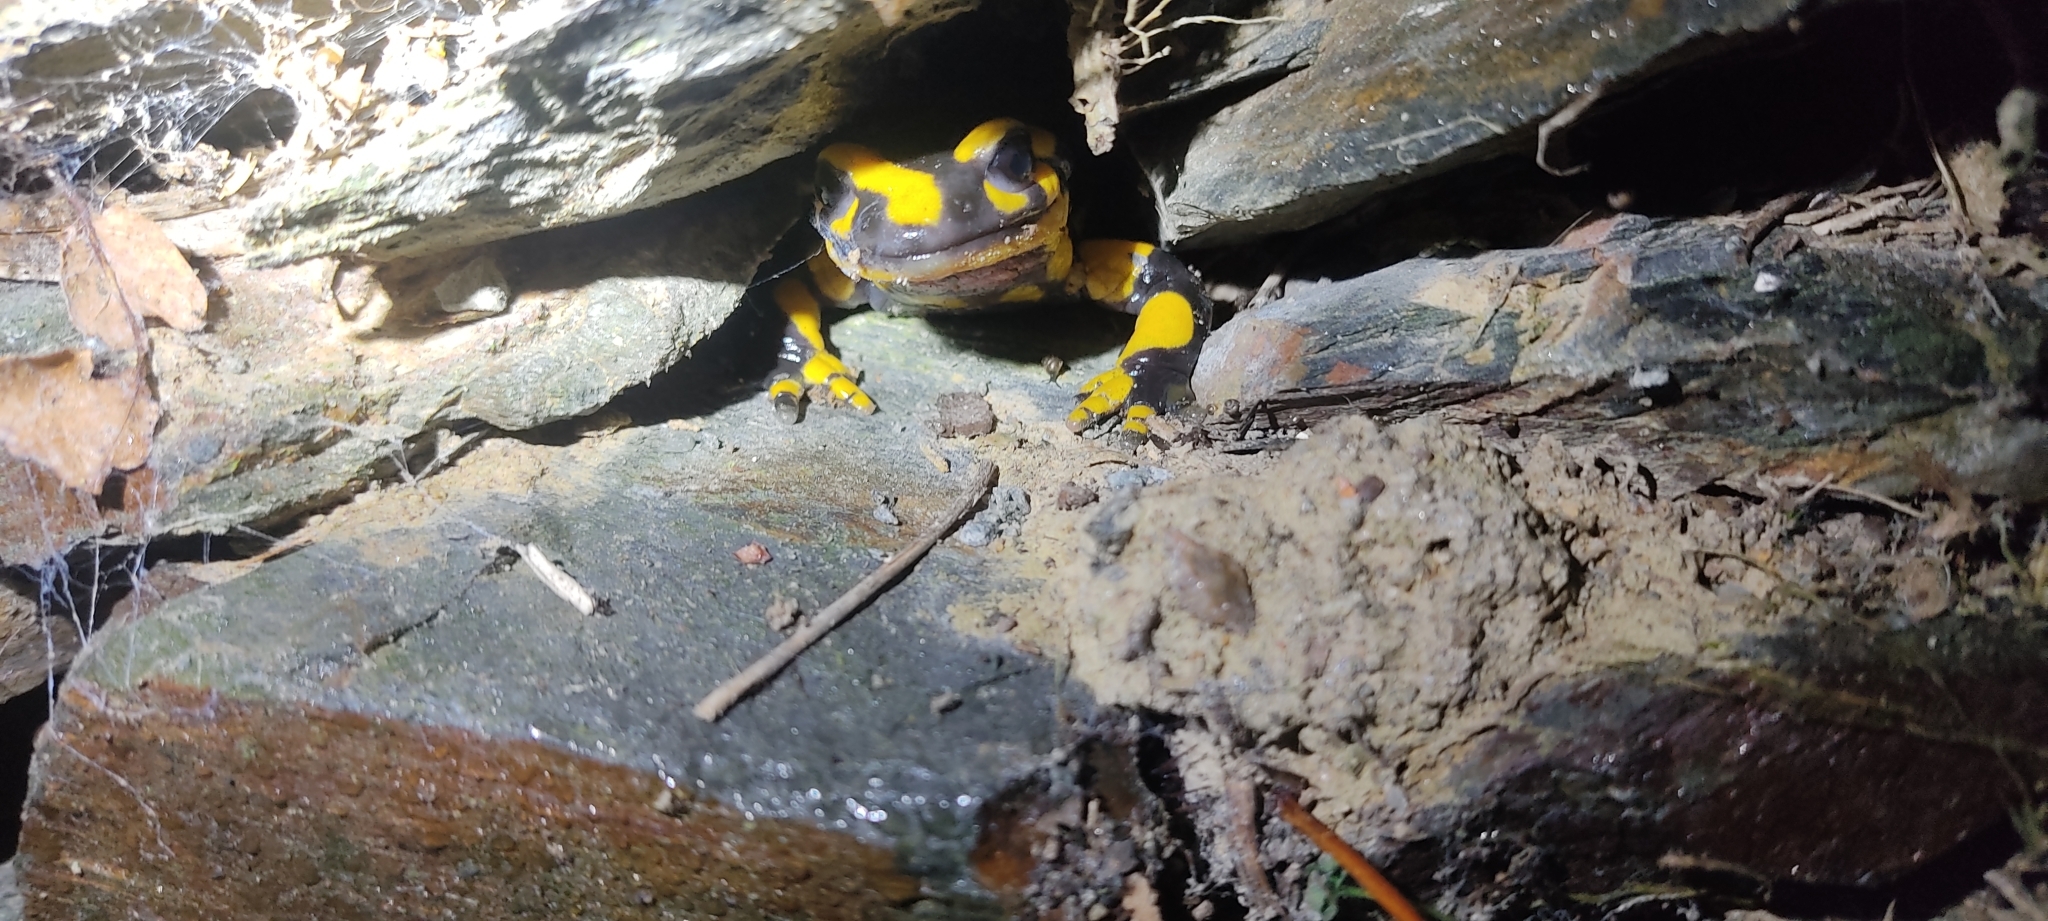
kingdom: Animalia
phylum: Chordata
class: Amphibia
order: Caudata
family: Salamandridae
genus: Salamandra
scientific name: Salamandra salamandra
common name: Fire salamander
